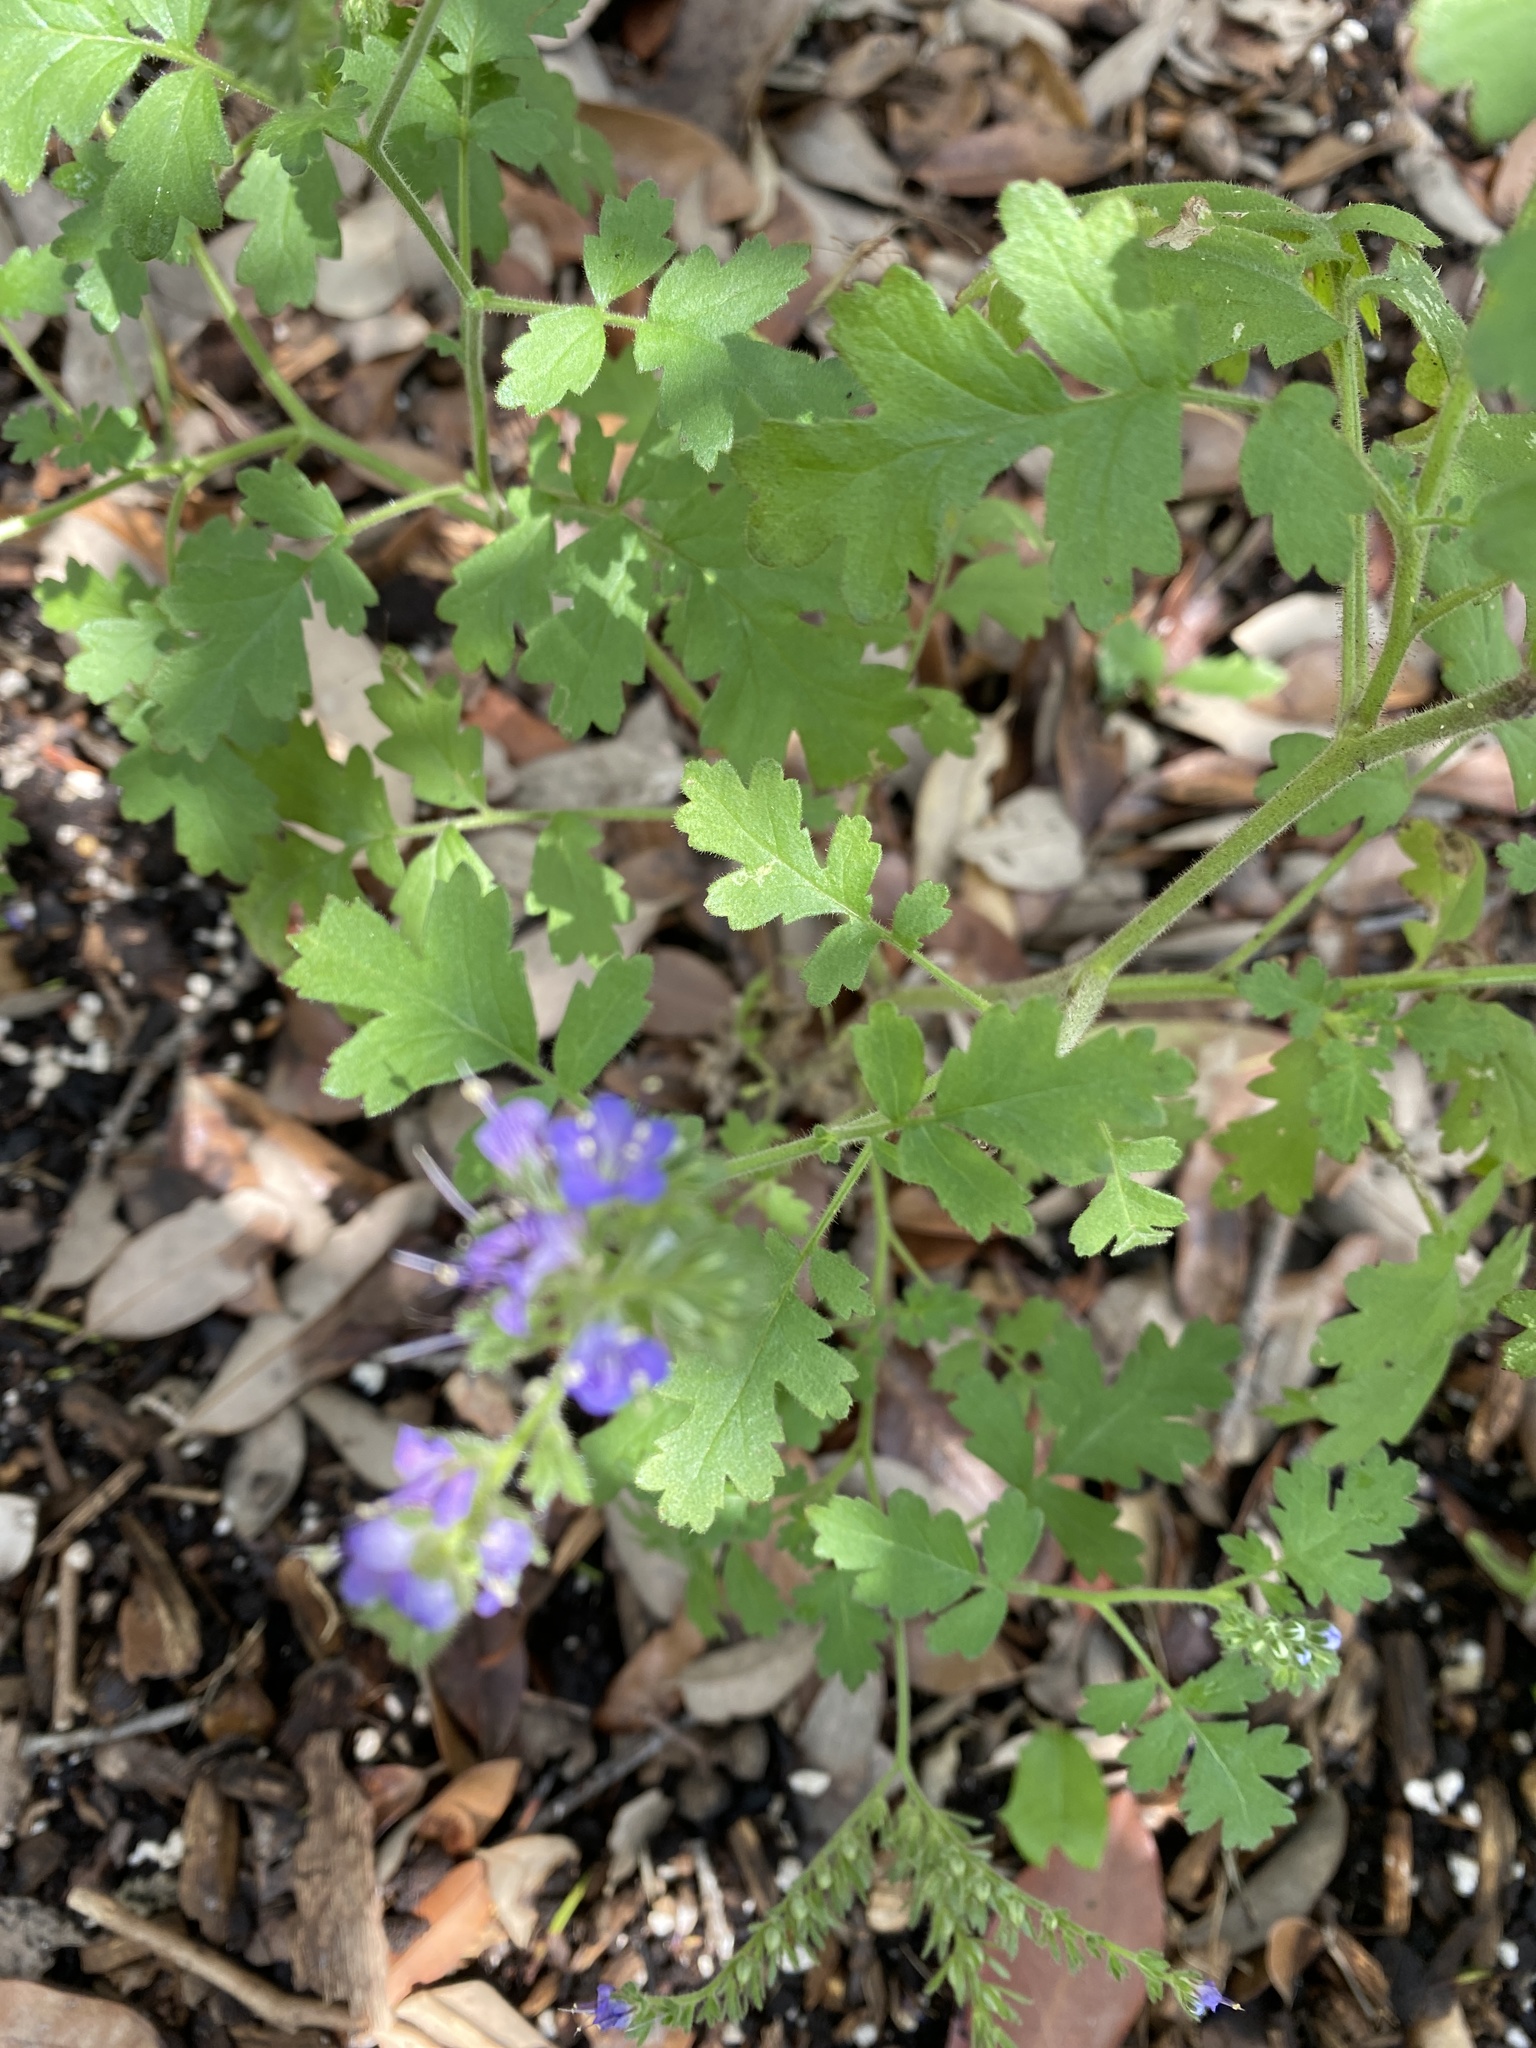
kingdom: Plantae
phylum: Tracheophyta
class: Magnoliopsida
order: Boraginales
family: Hydrophyllaceae
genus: Phacelia
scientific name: Phacelia congesta
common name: Blue curls
